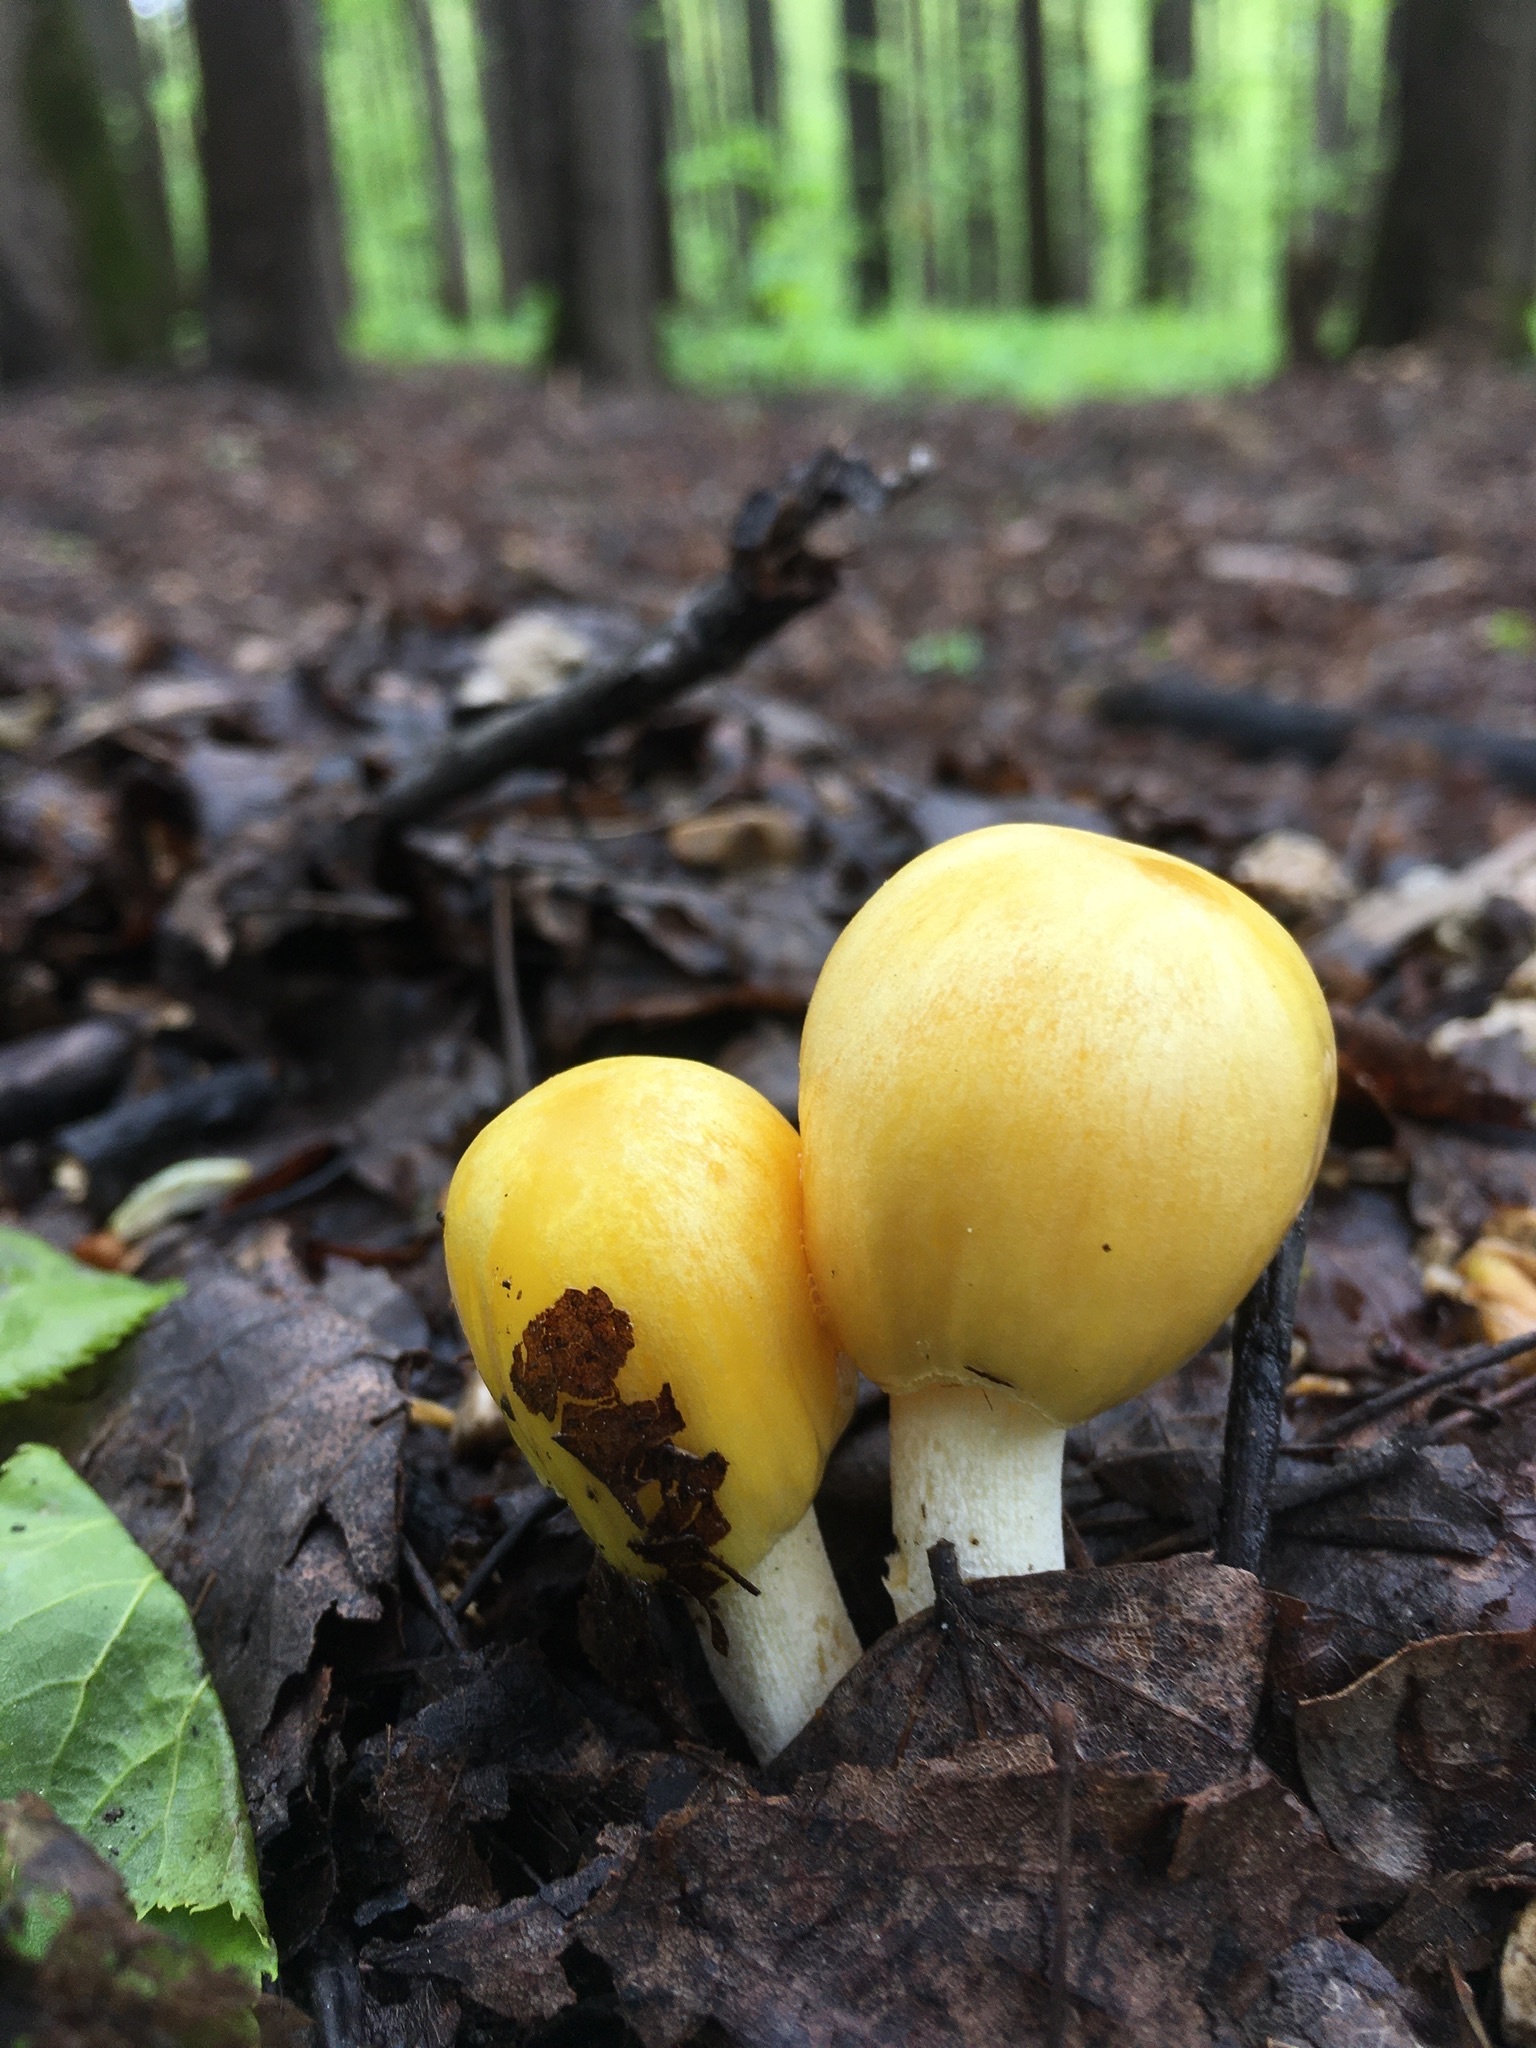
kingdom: Fungi
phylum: Basidiomycota
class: Agaricomycetes
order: Agaricales
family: Bolbitiaceae
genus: Bolbitius
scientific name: Bolbitius titubans
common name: Yellow fieldcap
